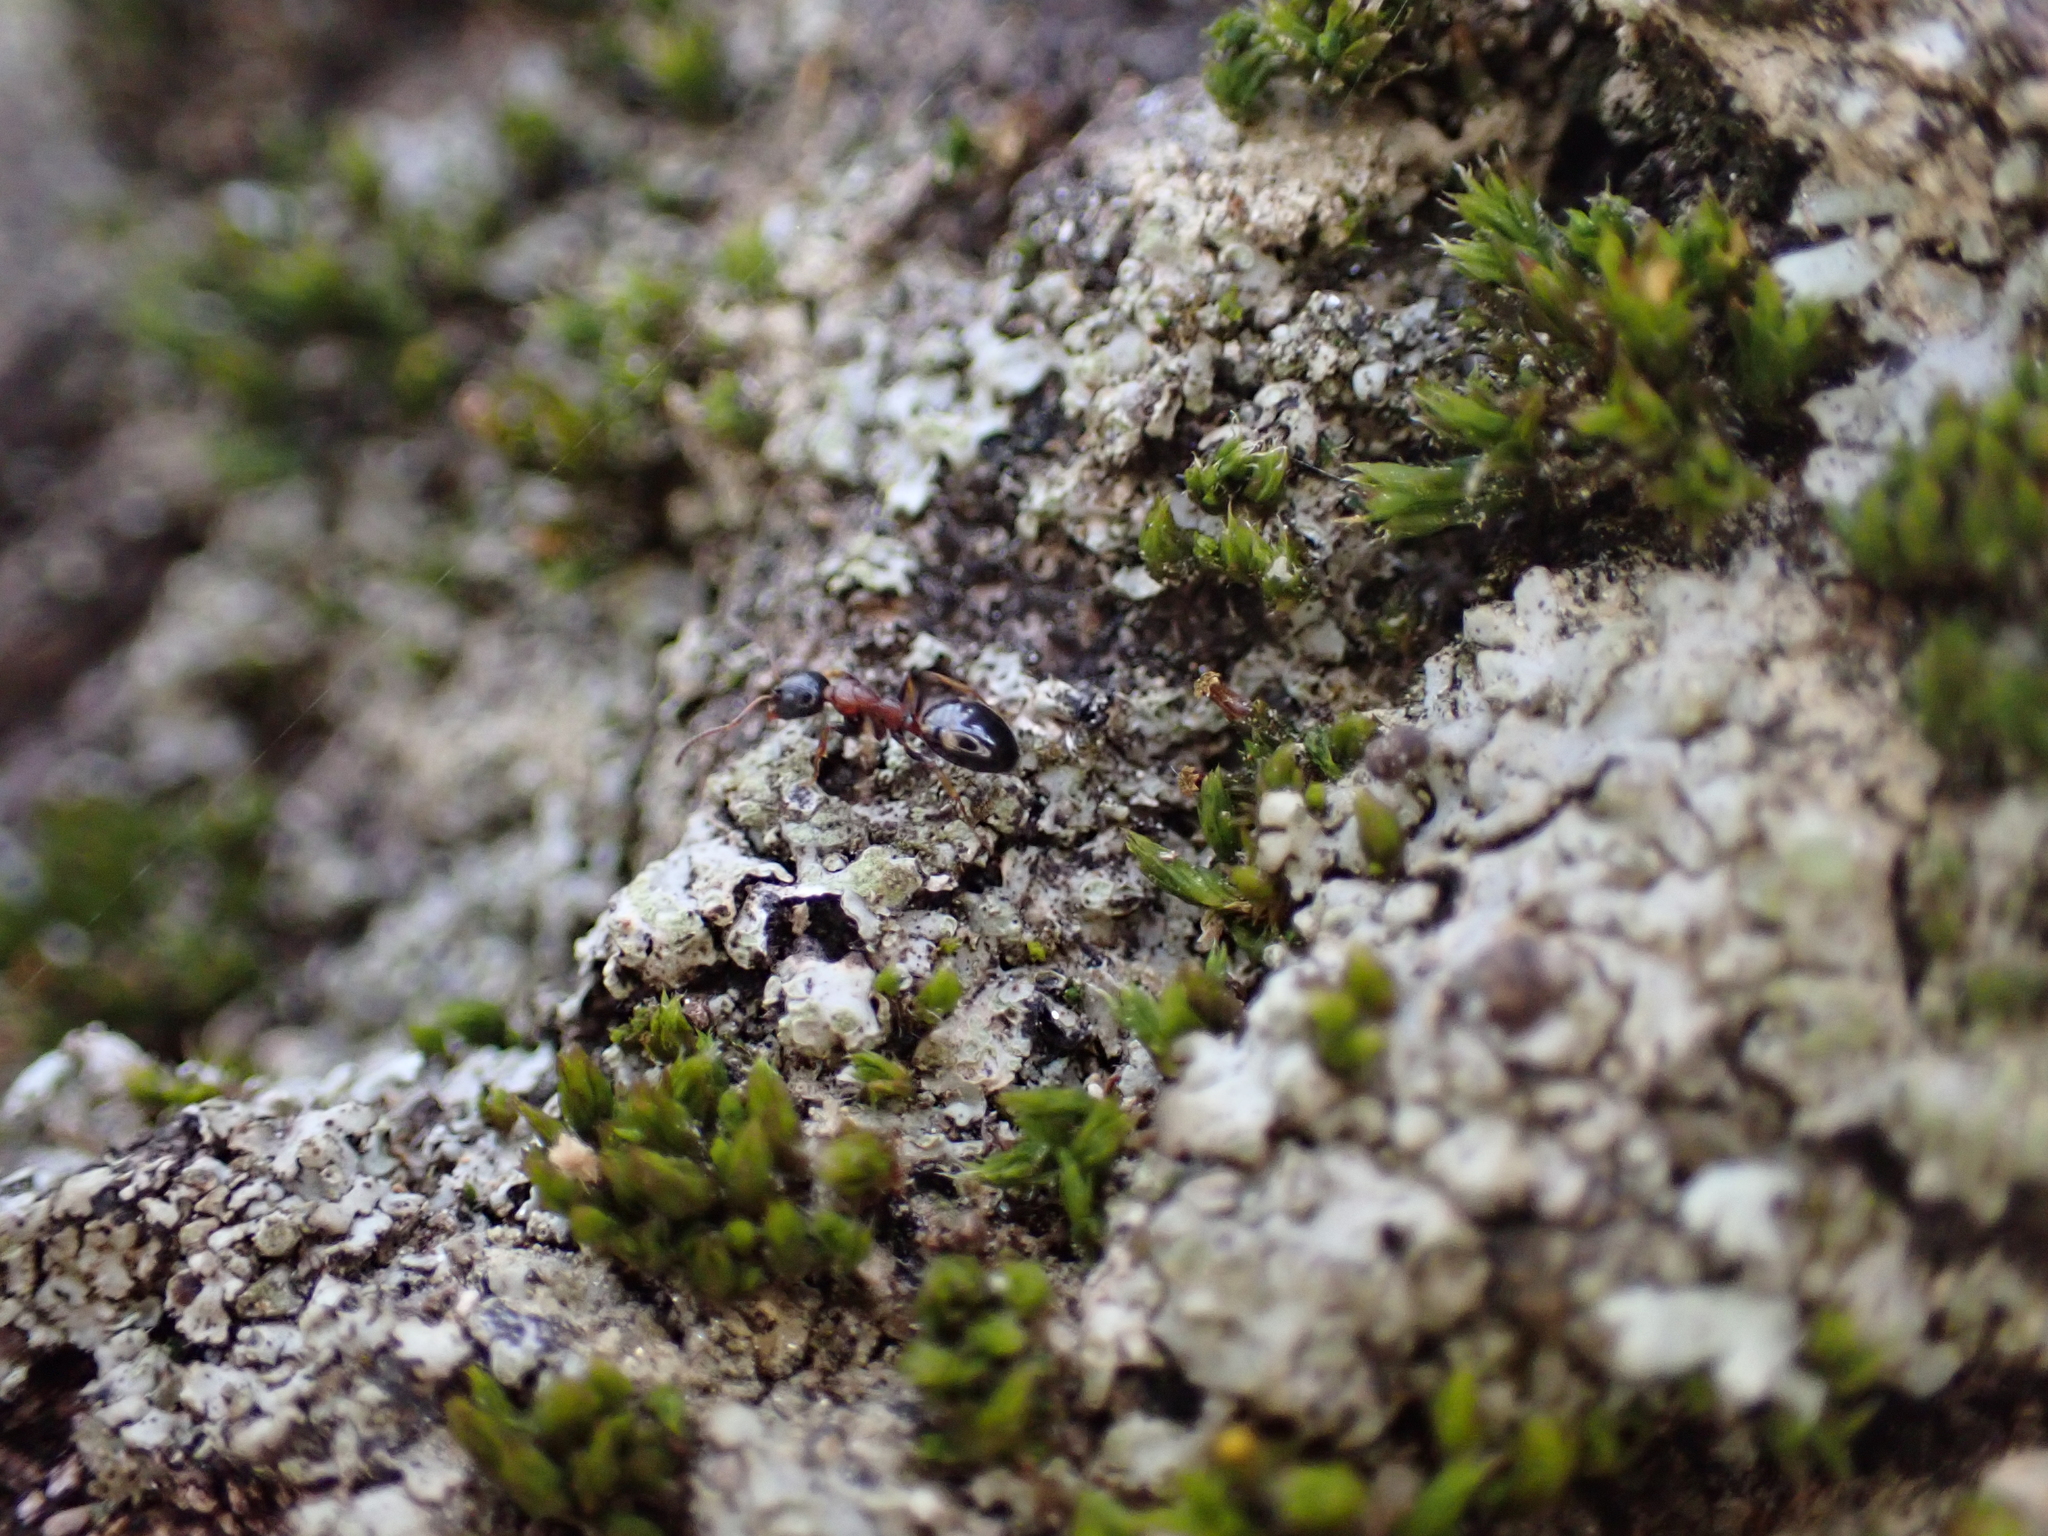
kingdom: Animalia
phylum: Arthropoda
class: Insecta
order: Hymenoptera
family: Formicidae
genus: Dolichoderus
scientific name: Dolichoderus quadripunctatus
